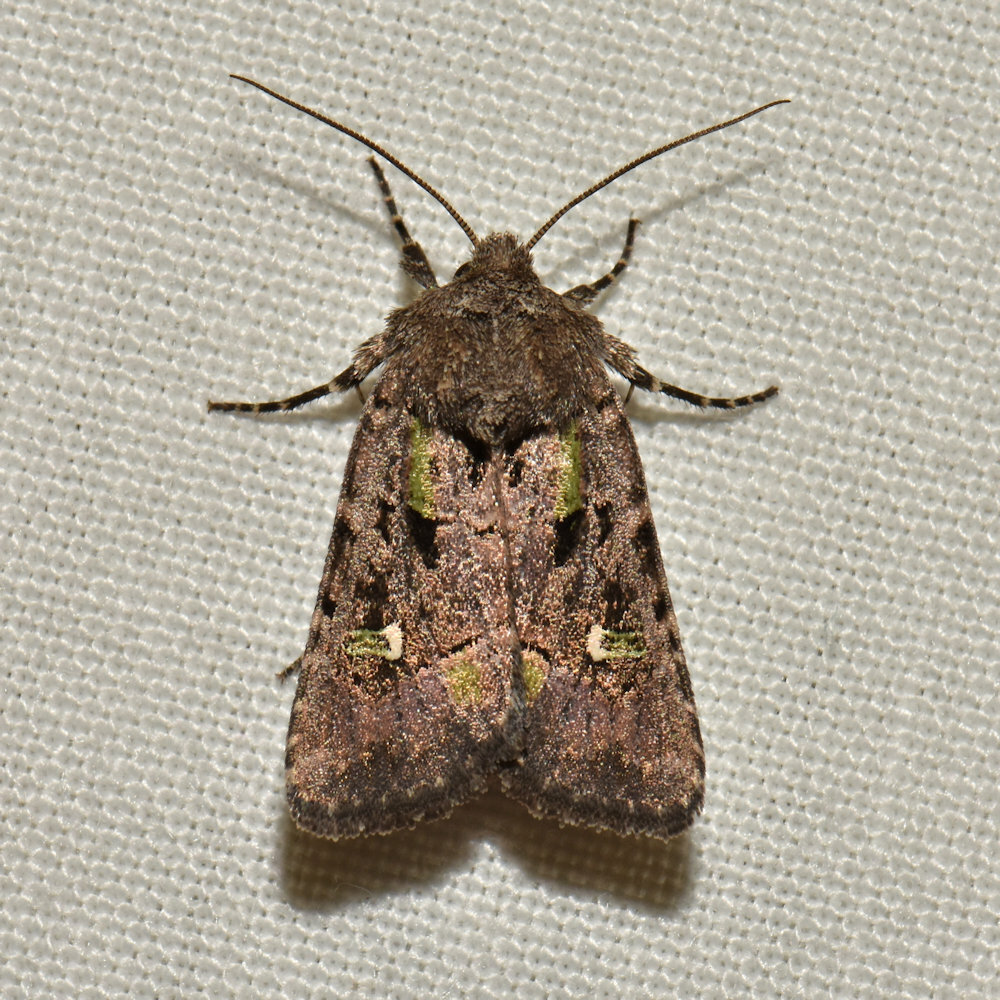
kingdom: Animalia
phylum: Arthropoda
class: Insecta
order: Lepidoptera
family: Noctuidae
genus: Lacinipolia
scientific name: Lacinipolia renigera
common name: Kidney-spotted minor
